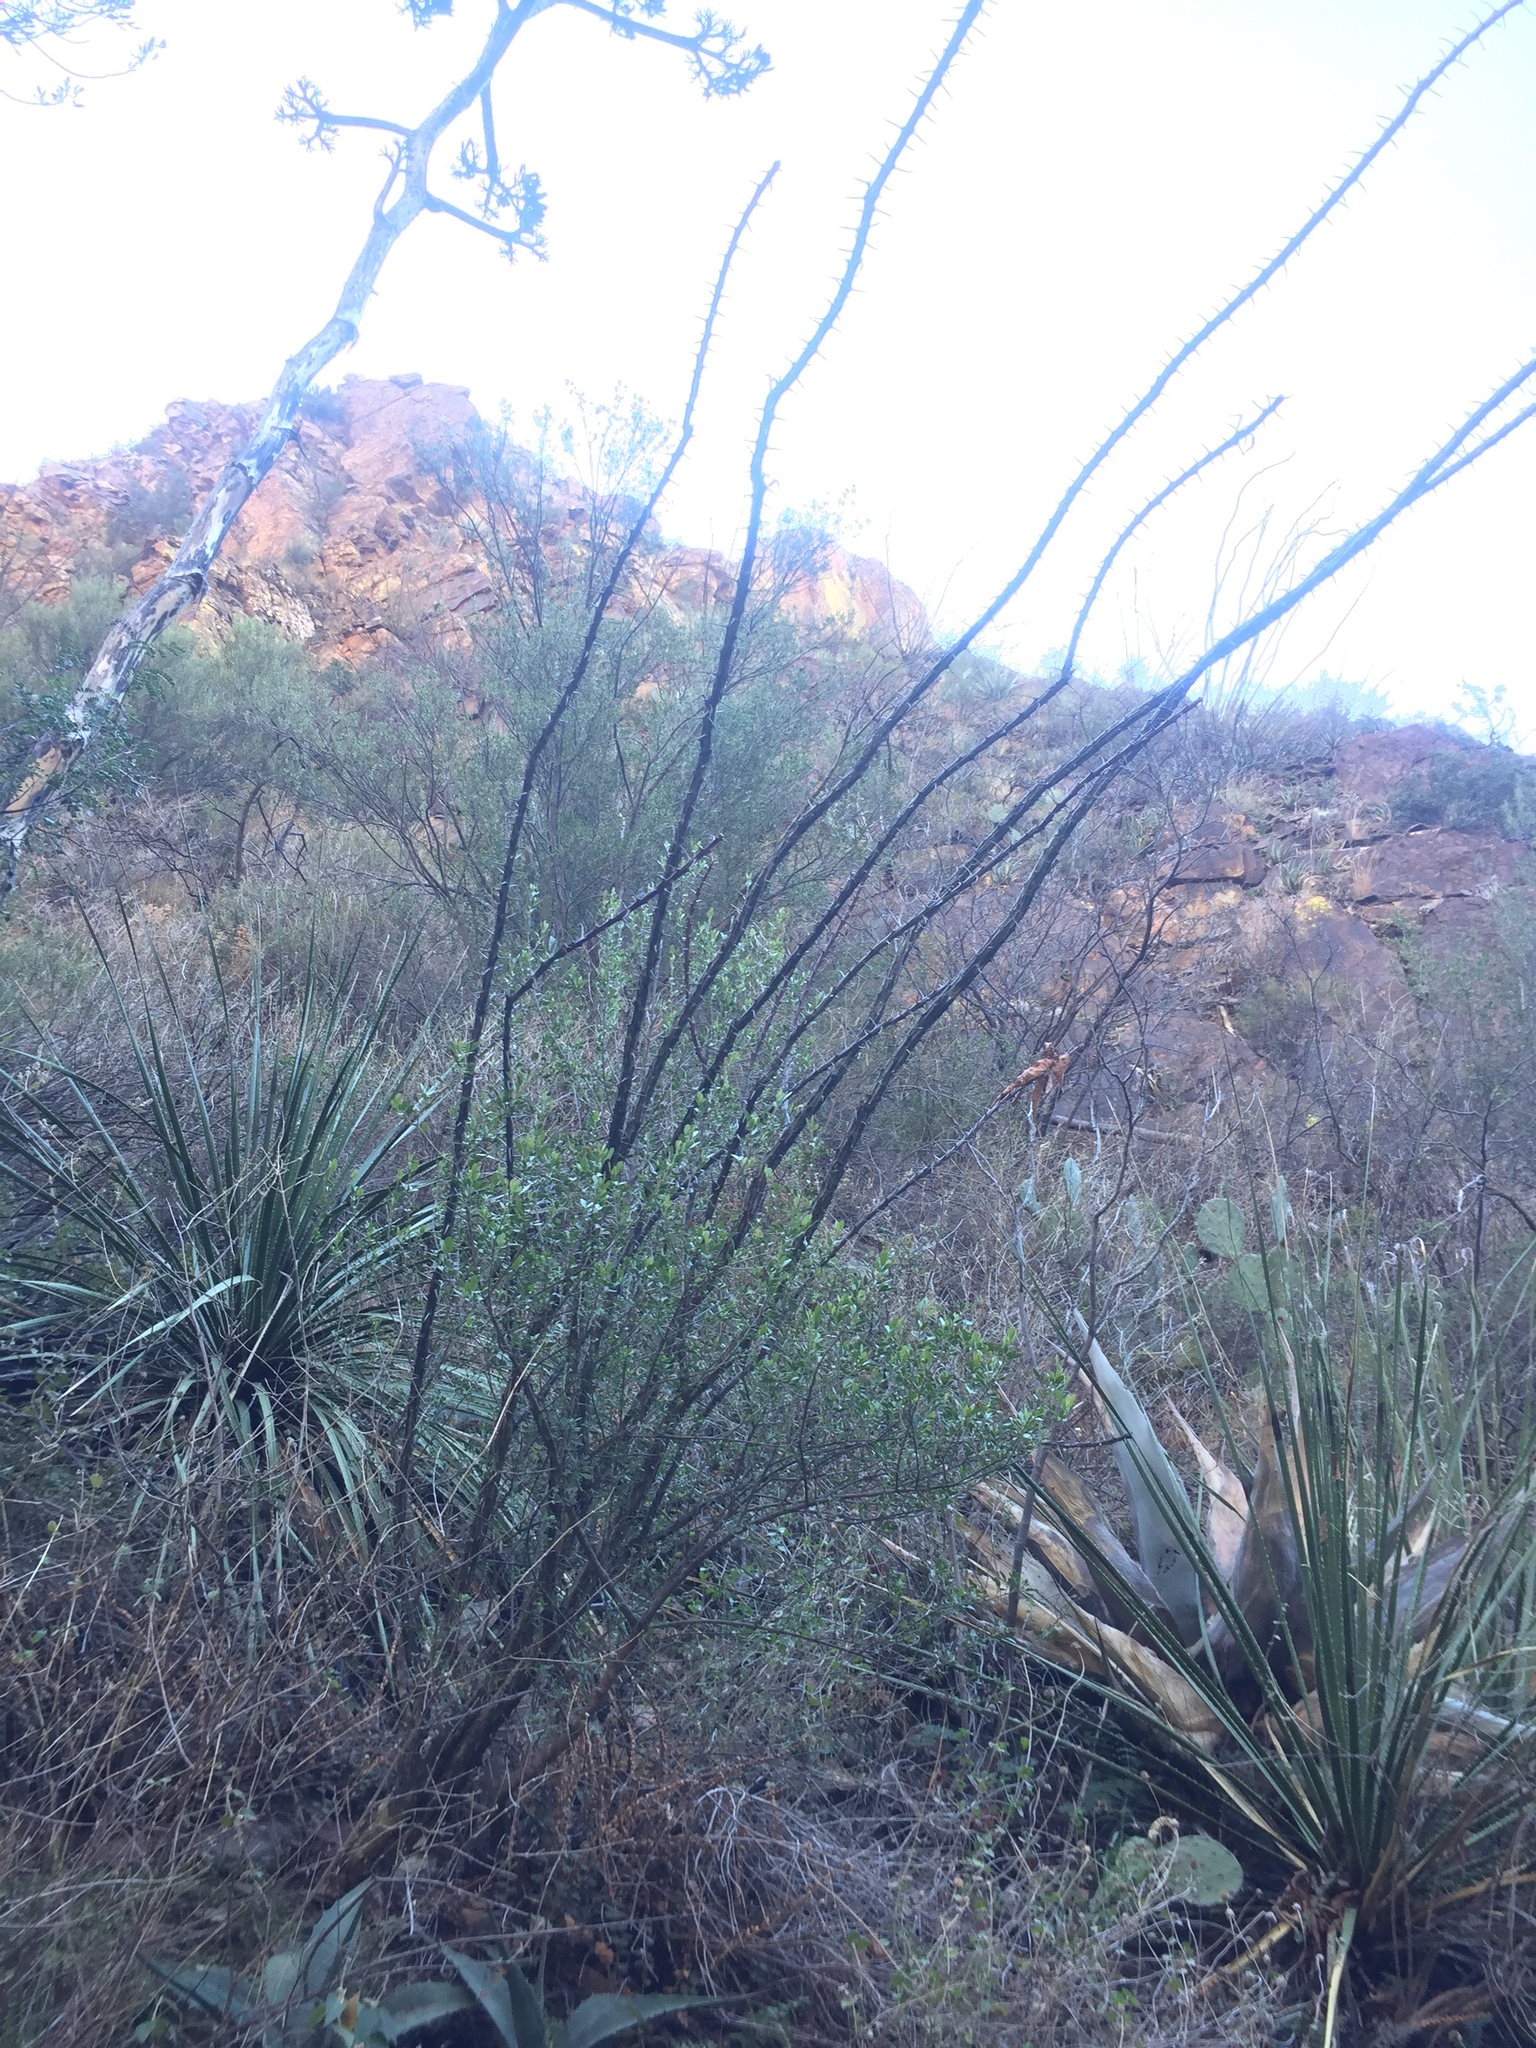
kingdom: Plantae
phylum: Tracheophyta
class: Magnoliopsida
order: Ericales
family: Fouquieriaceae
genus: Fouquieria
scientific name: Fouquieria splendens
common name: Vine-cactus
